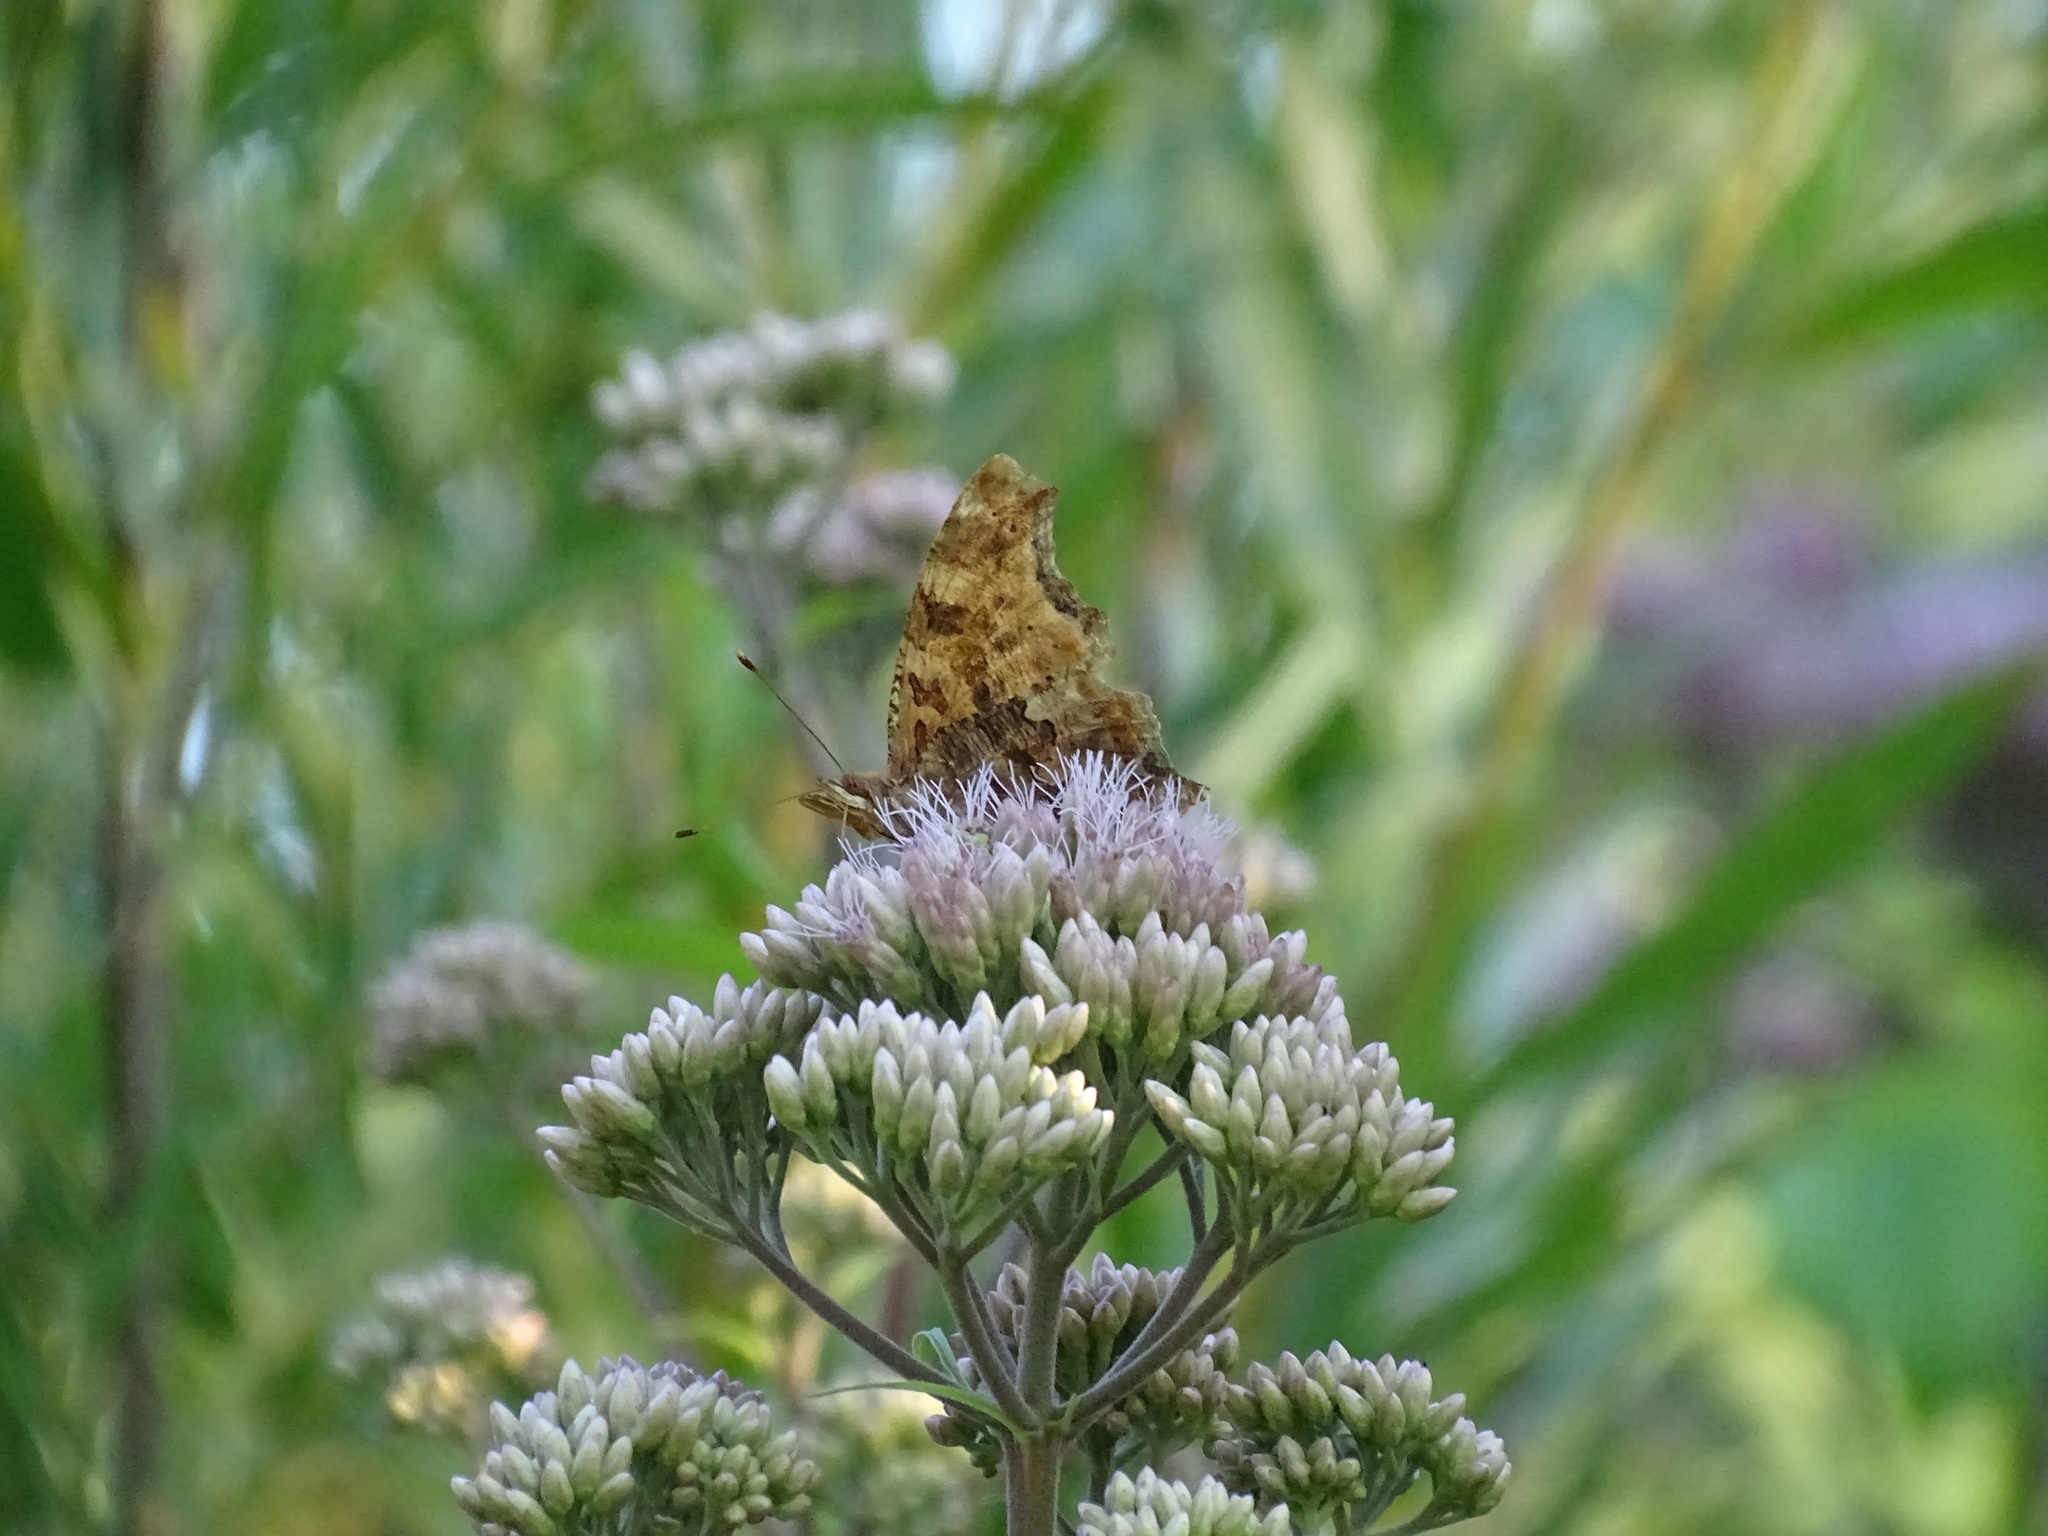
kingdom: Animalia
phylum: Arthropoda
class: Insecta
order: Lepidoptera
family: Nymphalidae
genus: Polygonia
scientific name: Polygonia comma
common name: Eastern comma
